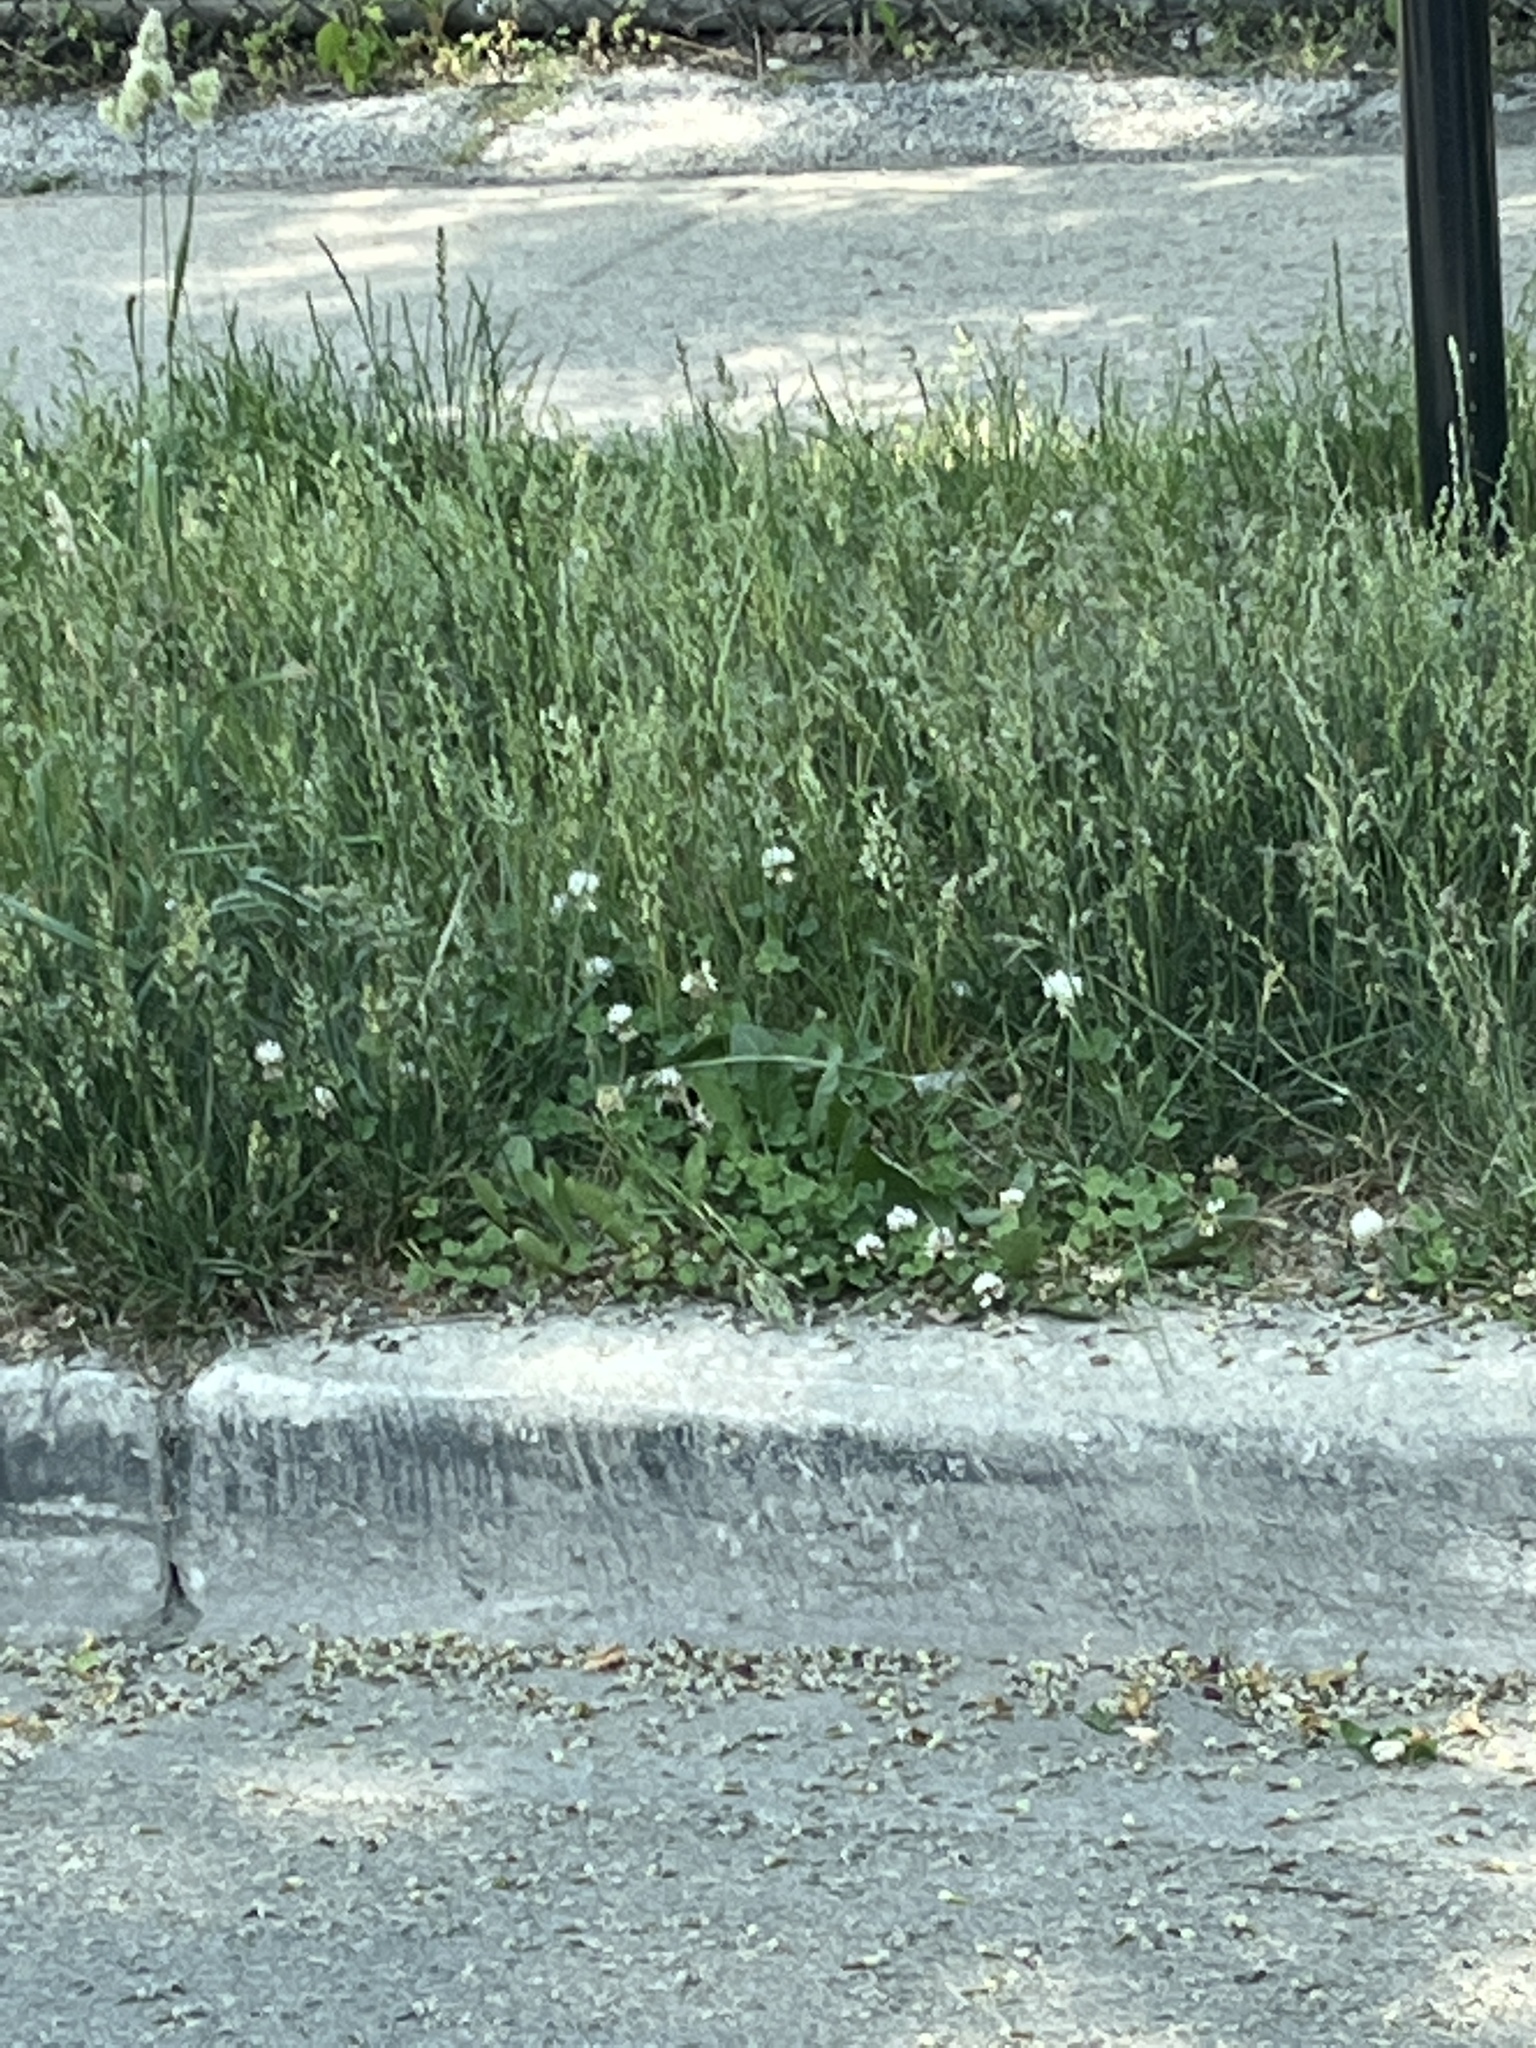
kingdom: Plantae
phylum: Tracheophyta
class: Magnoliopsida
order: Fabales
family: Fabaceae
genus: Trifolium
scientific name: Trifolium repens
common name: White clover
